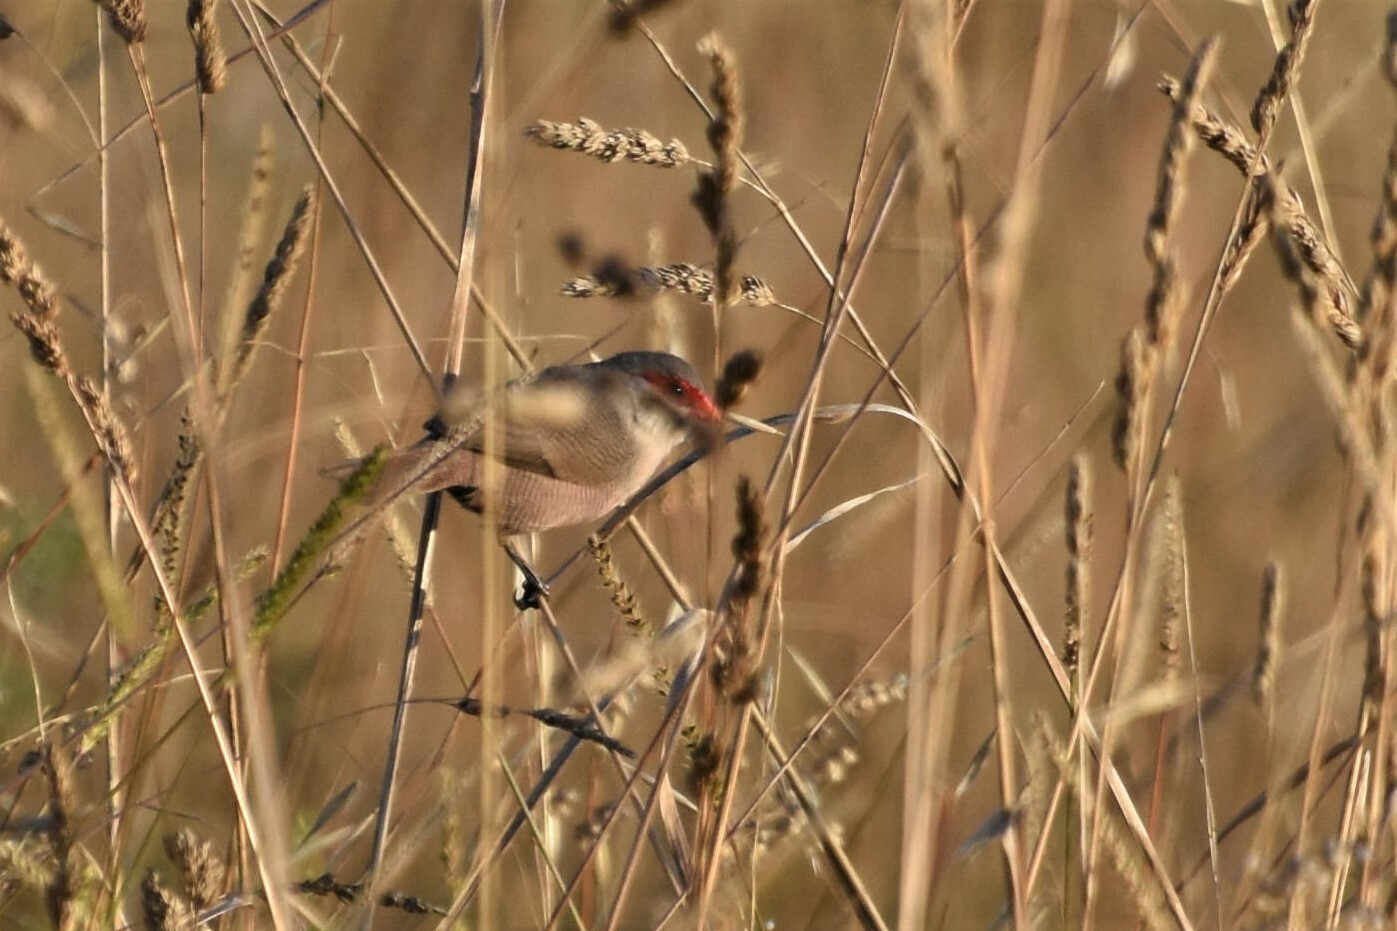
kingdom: Animalia
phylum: Chordata
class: Aves
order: Passeriformes
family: Estrildidae
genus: Estrilda
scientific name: Estrilda astrild
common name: Common waxbill
